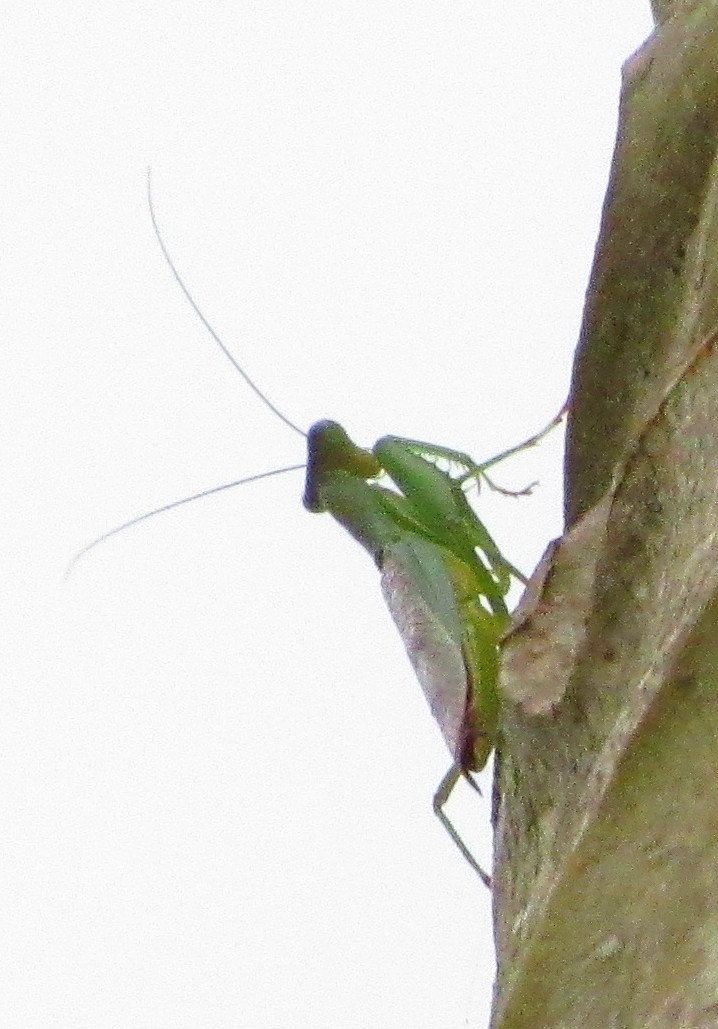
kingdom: Animalia
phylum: Arthropoda
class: Insecta
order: Mantodea
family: Acanthopidae
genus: Acontista
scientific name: Acontista
